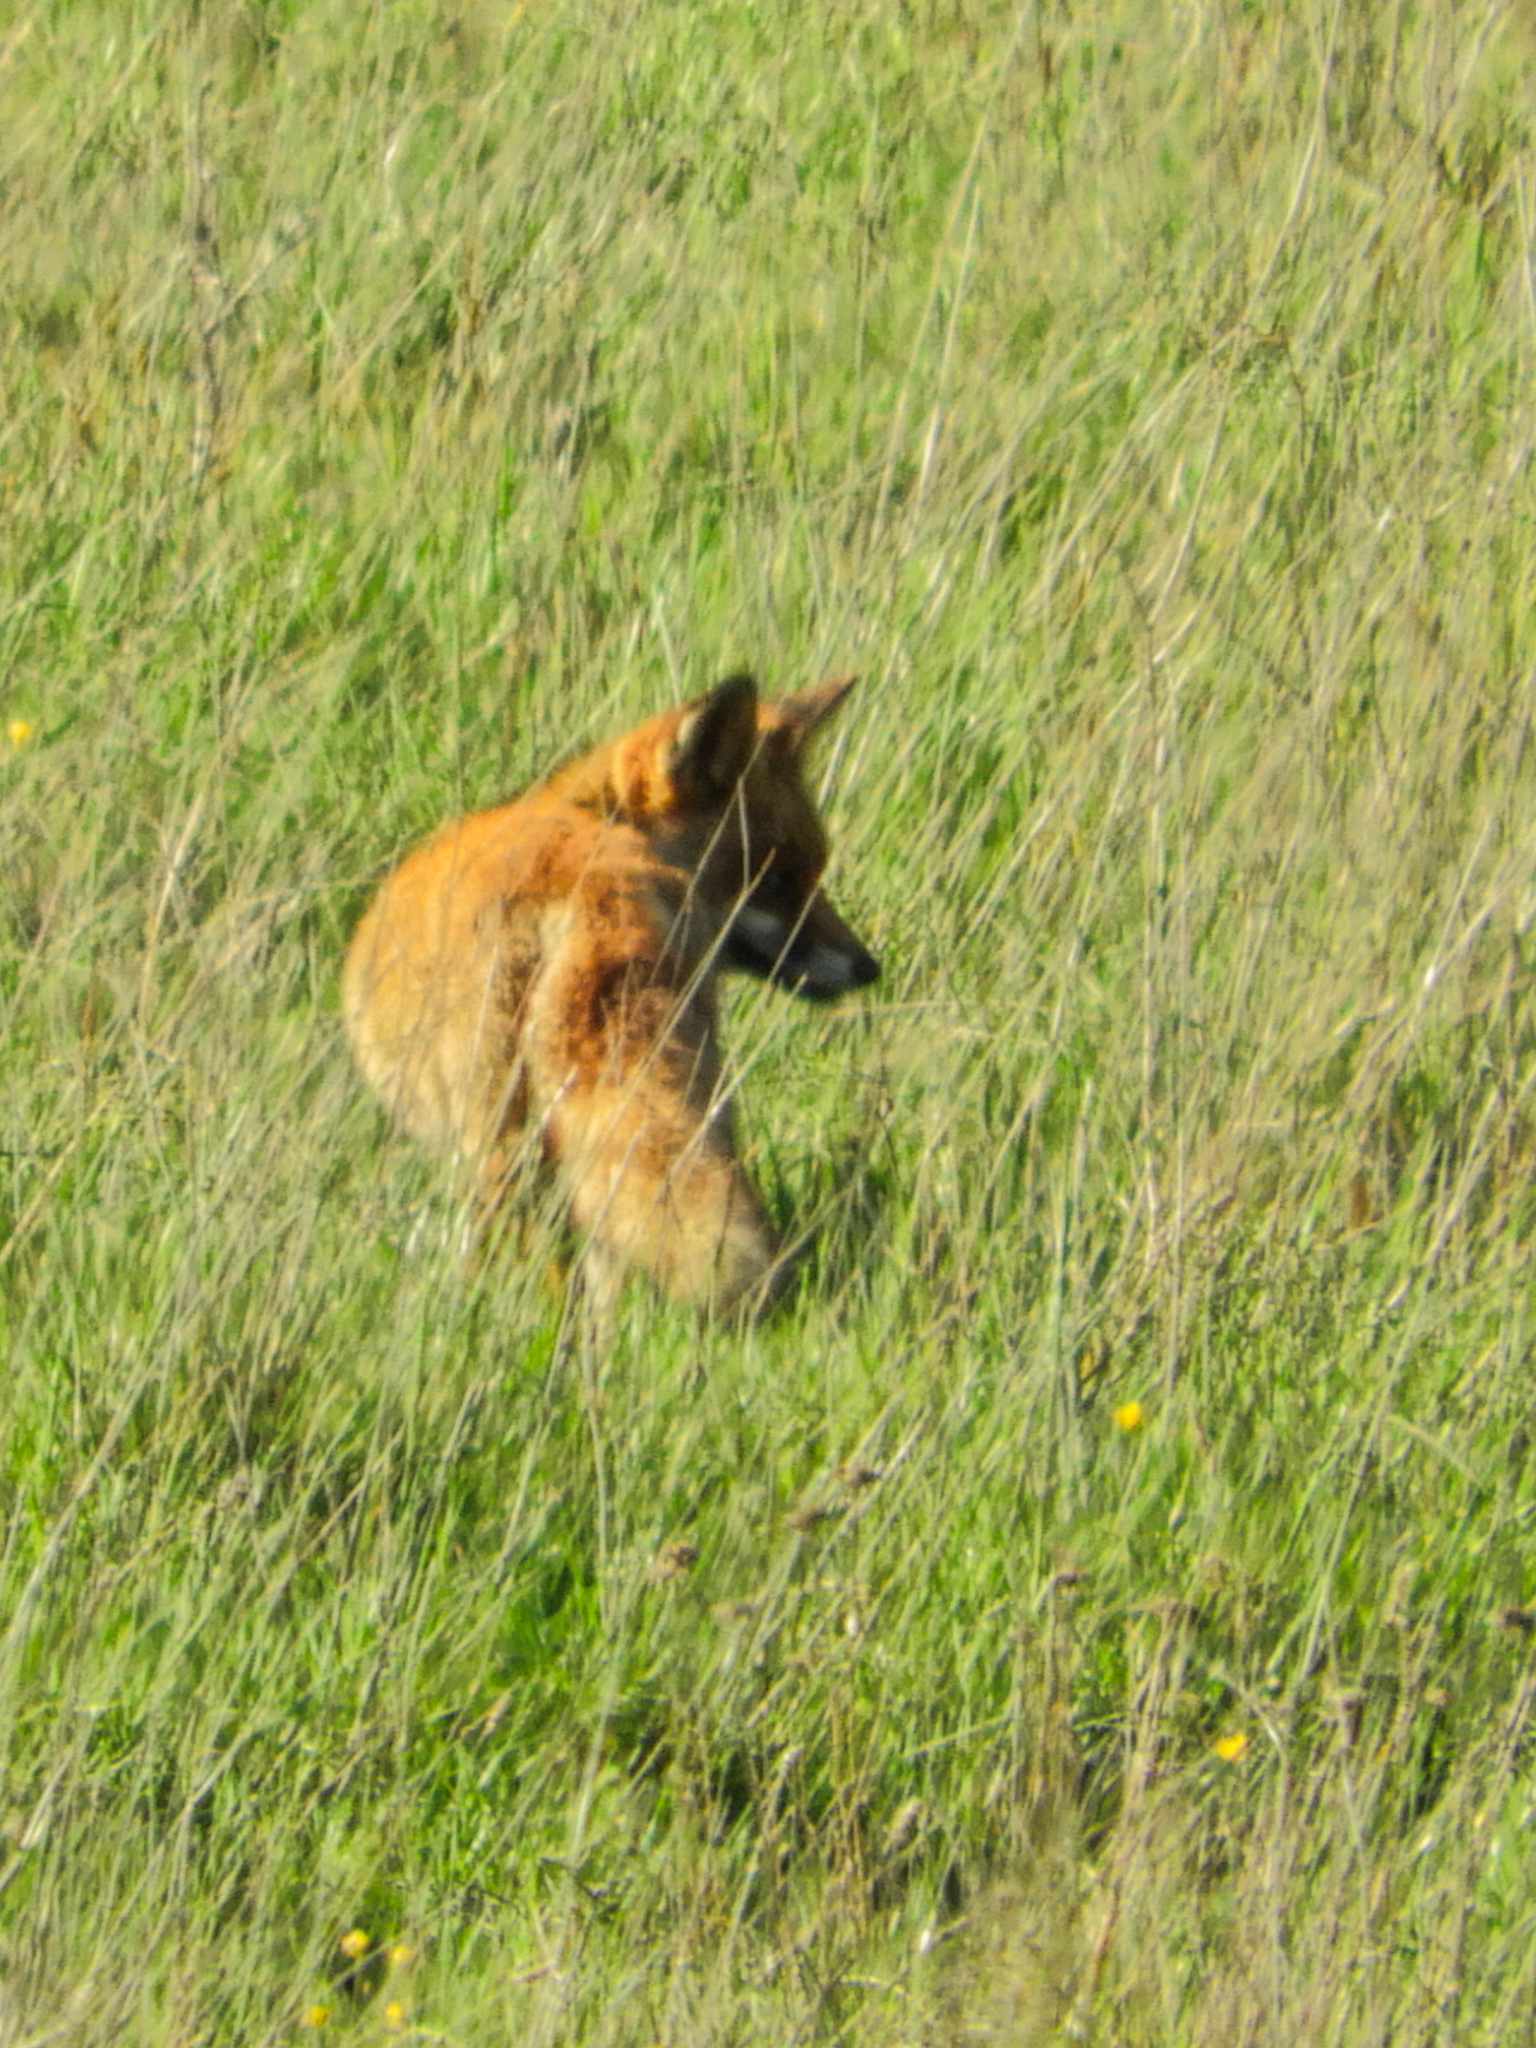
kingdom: Animalia
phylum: Chordata
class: Mammalia
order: Carnivora
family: Canidae
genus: Vulpes
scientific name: Vulpes vulpes
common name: Red fox
